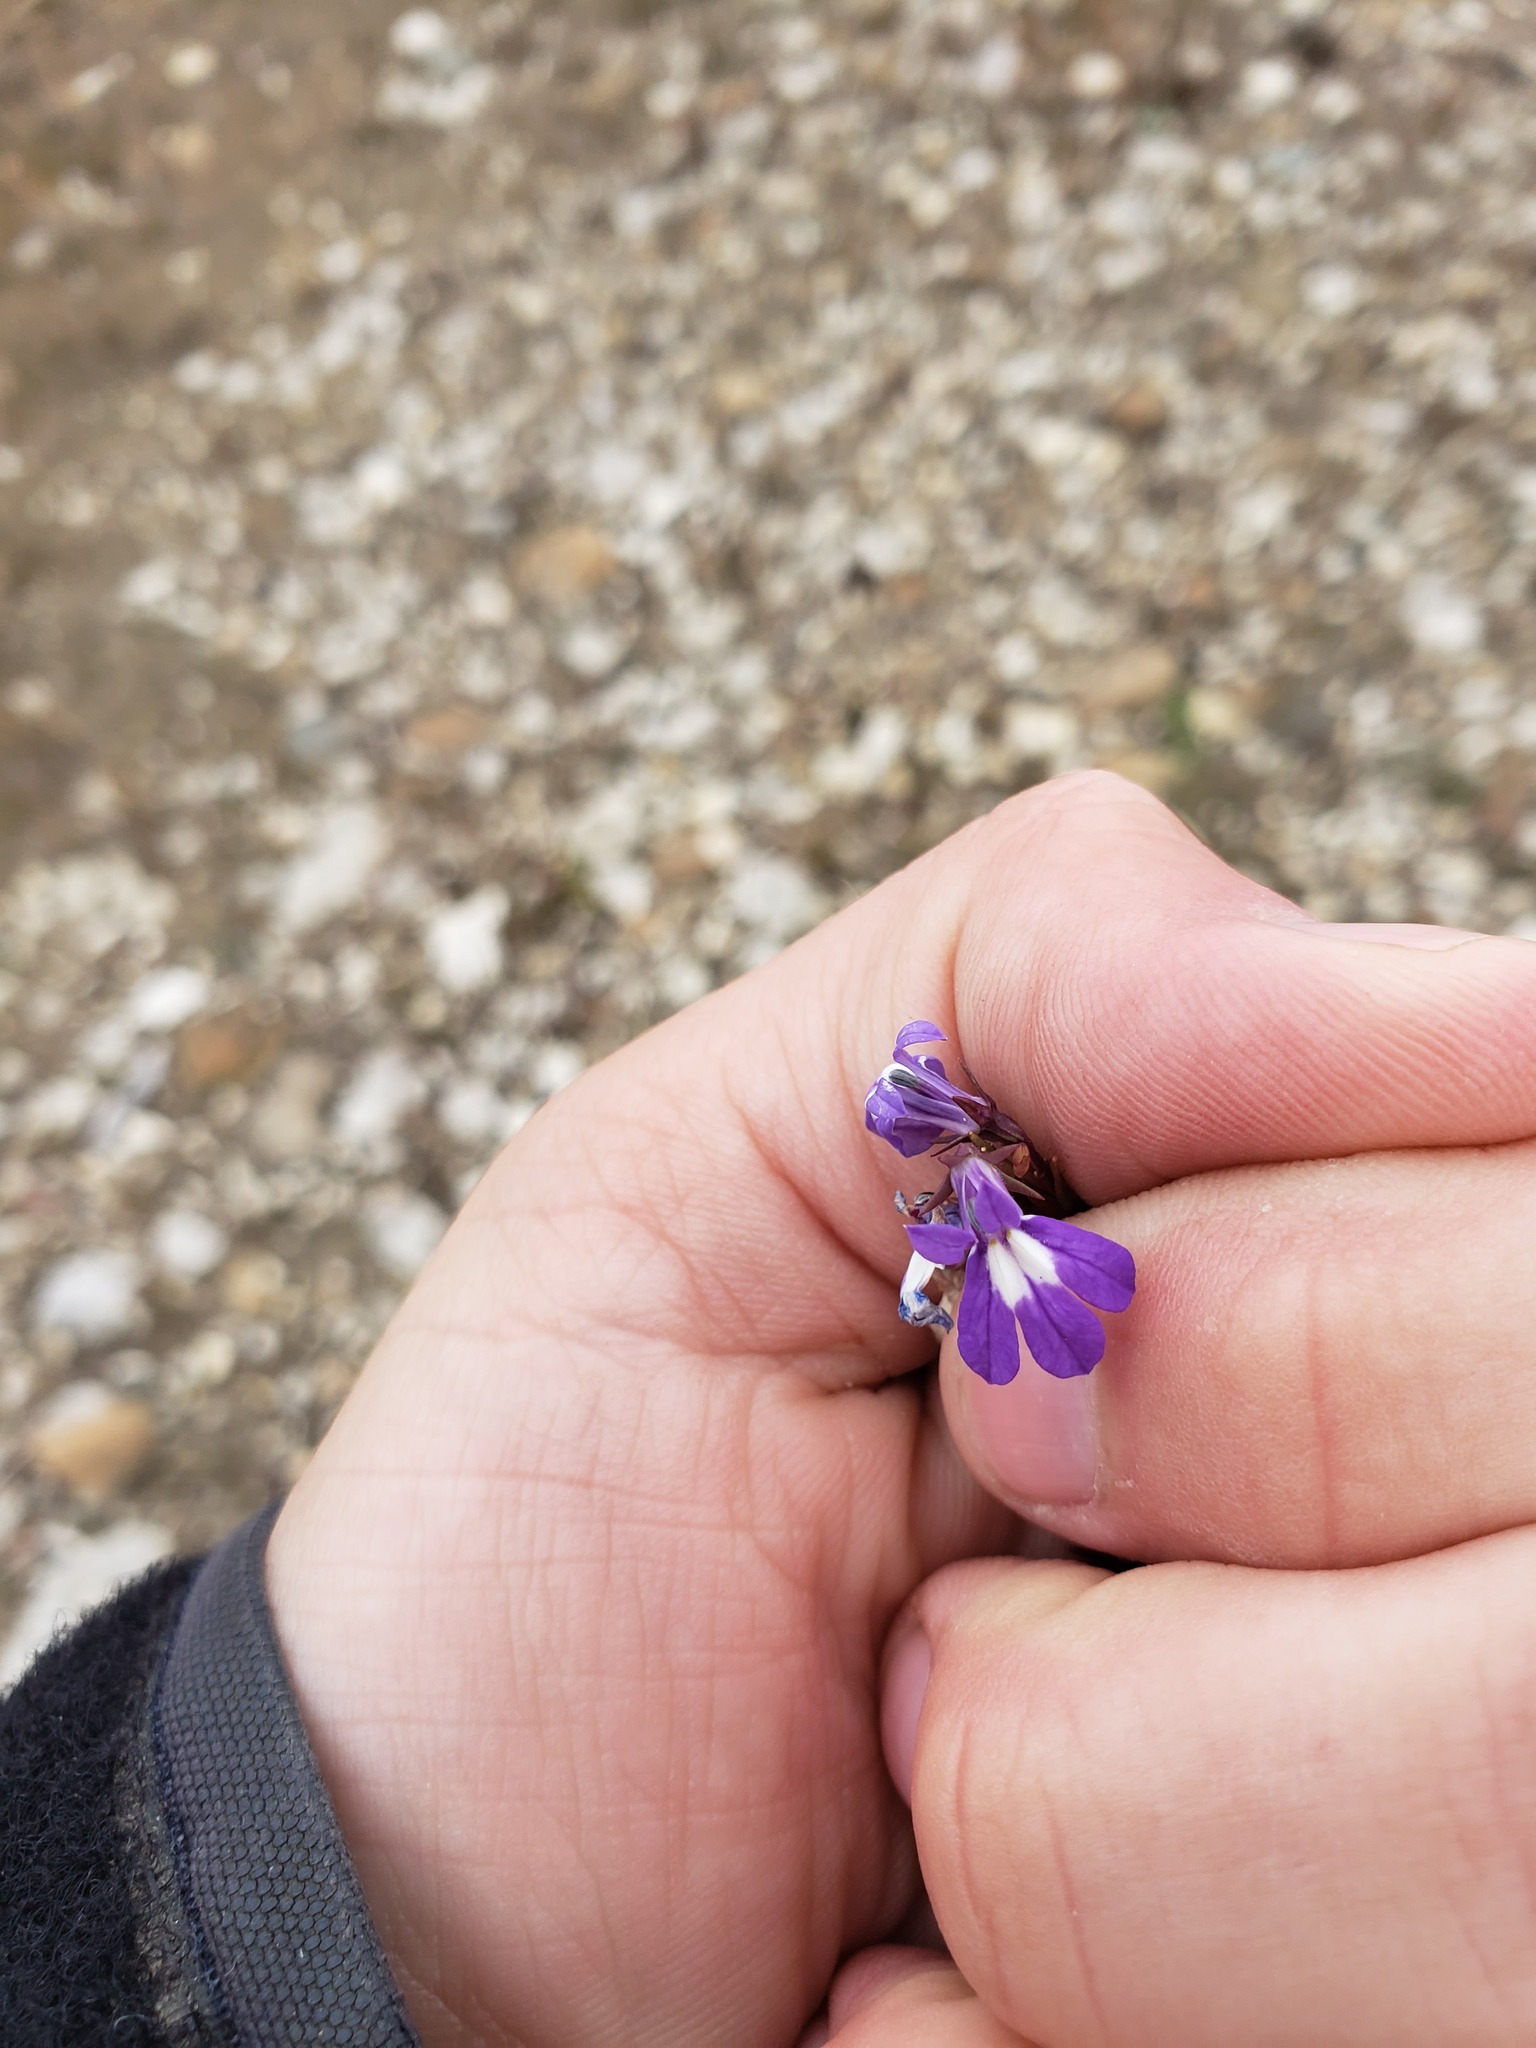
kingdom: Plantae
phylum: Tracheophyta
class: Magnoliopsida
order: Asterales
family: Campanulaceae
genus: Lobelia
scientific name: Lobelia kalmii
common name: Kalm's lobelia
